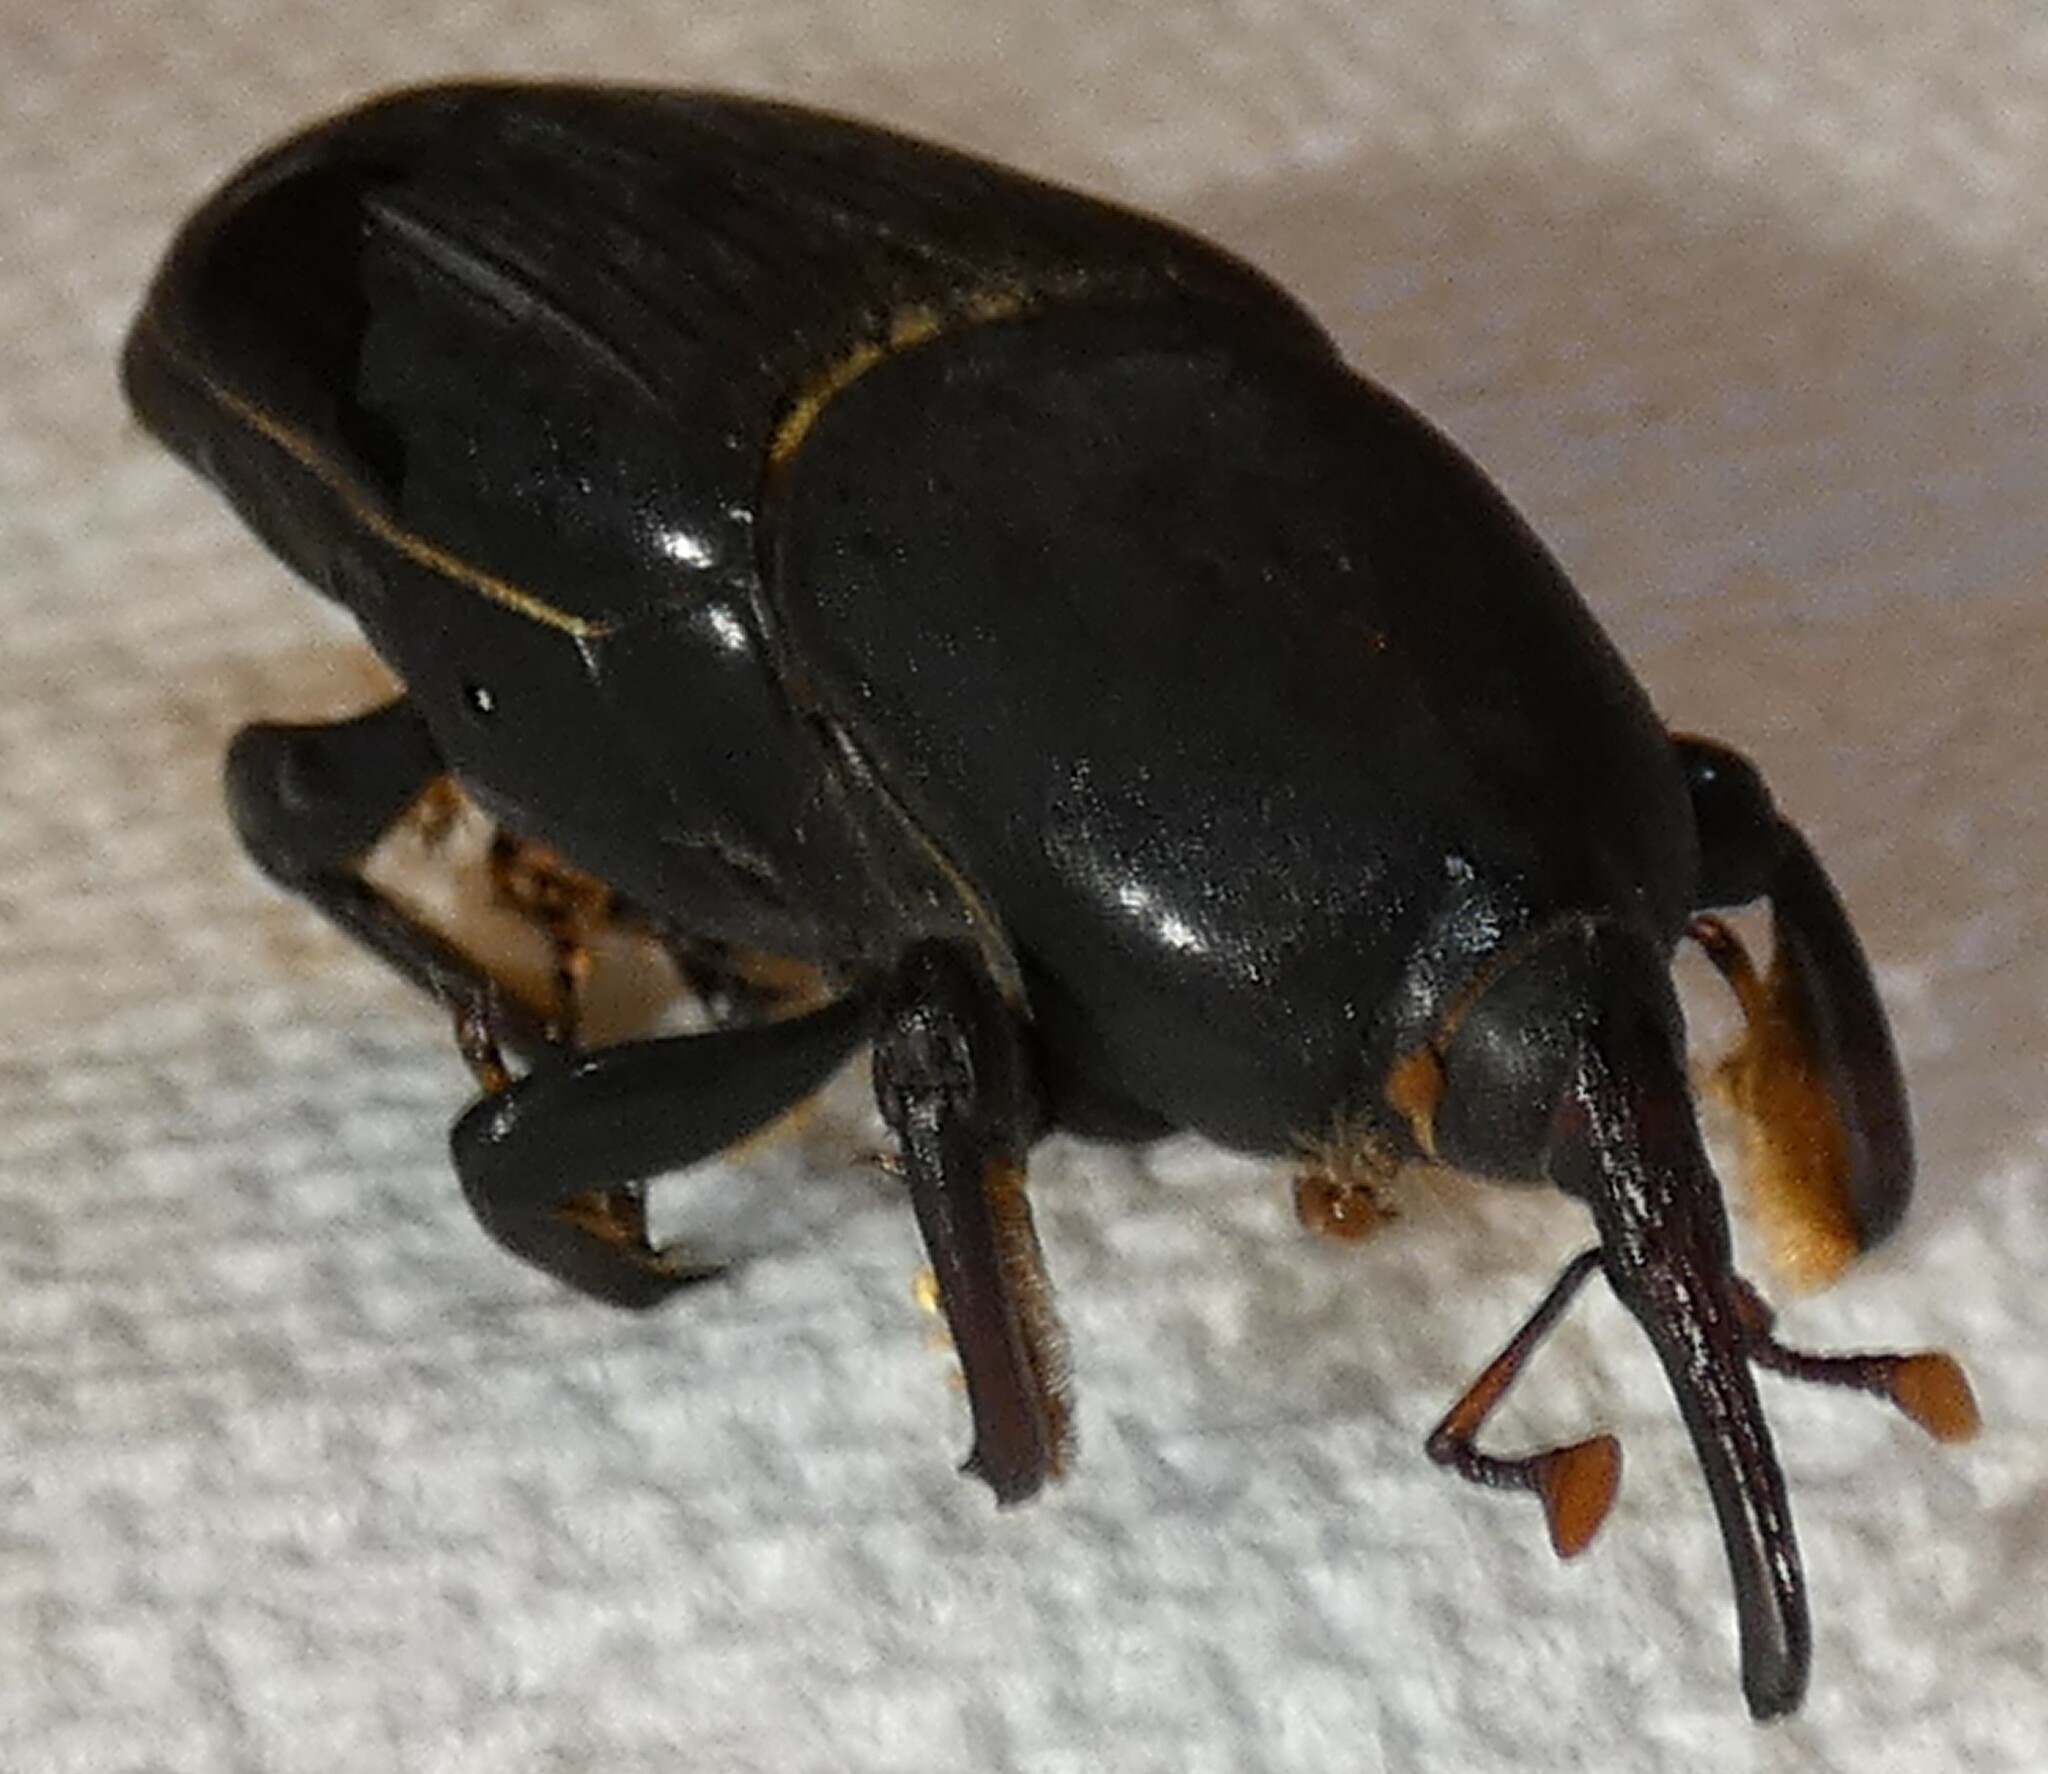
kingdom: Animalia
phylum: Arthropoda
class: Insecta
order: Coleoptera
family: Dryophthoridae
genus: Rhynchophorus
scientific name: Rhynchophorus cruentatus
